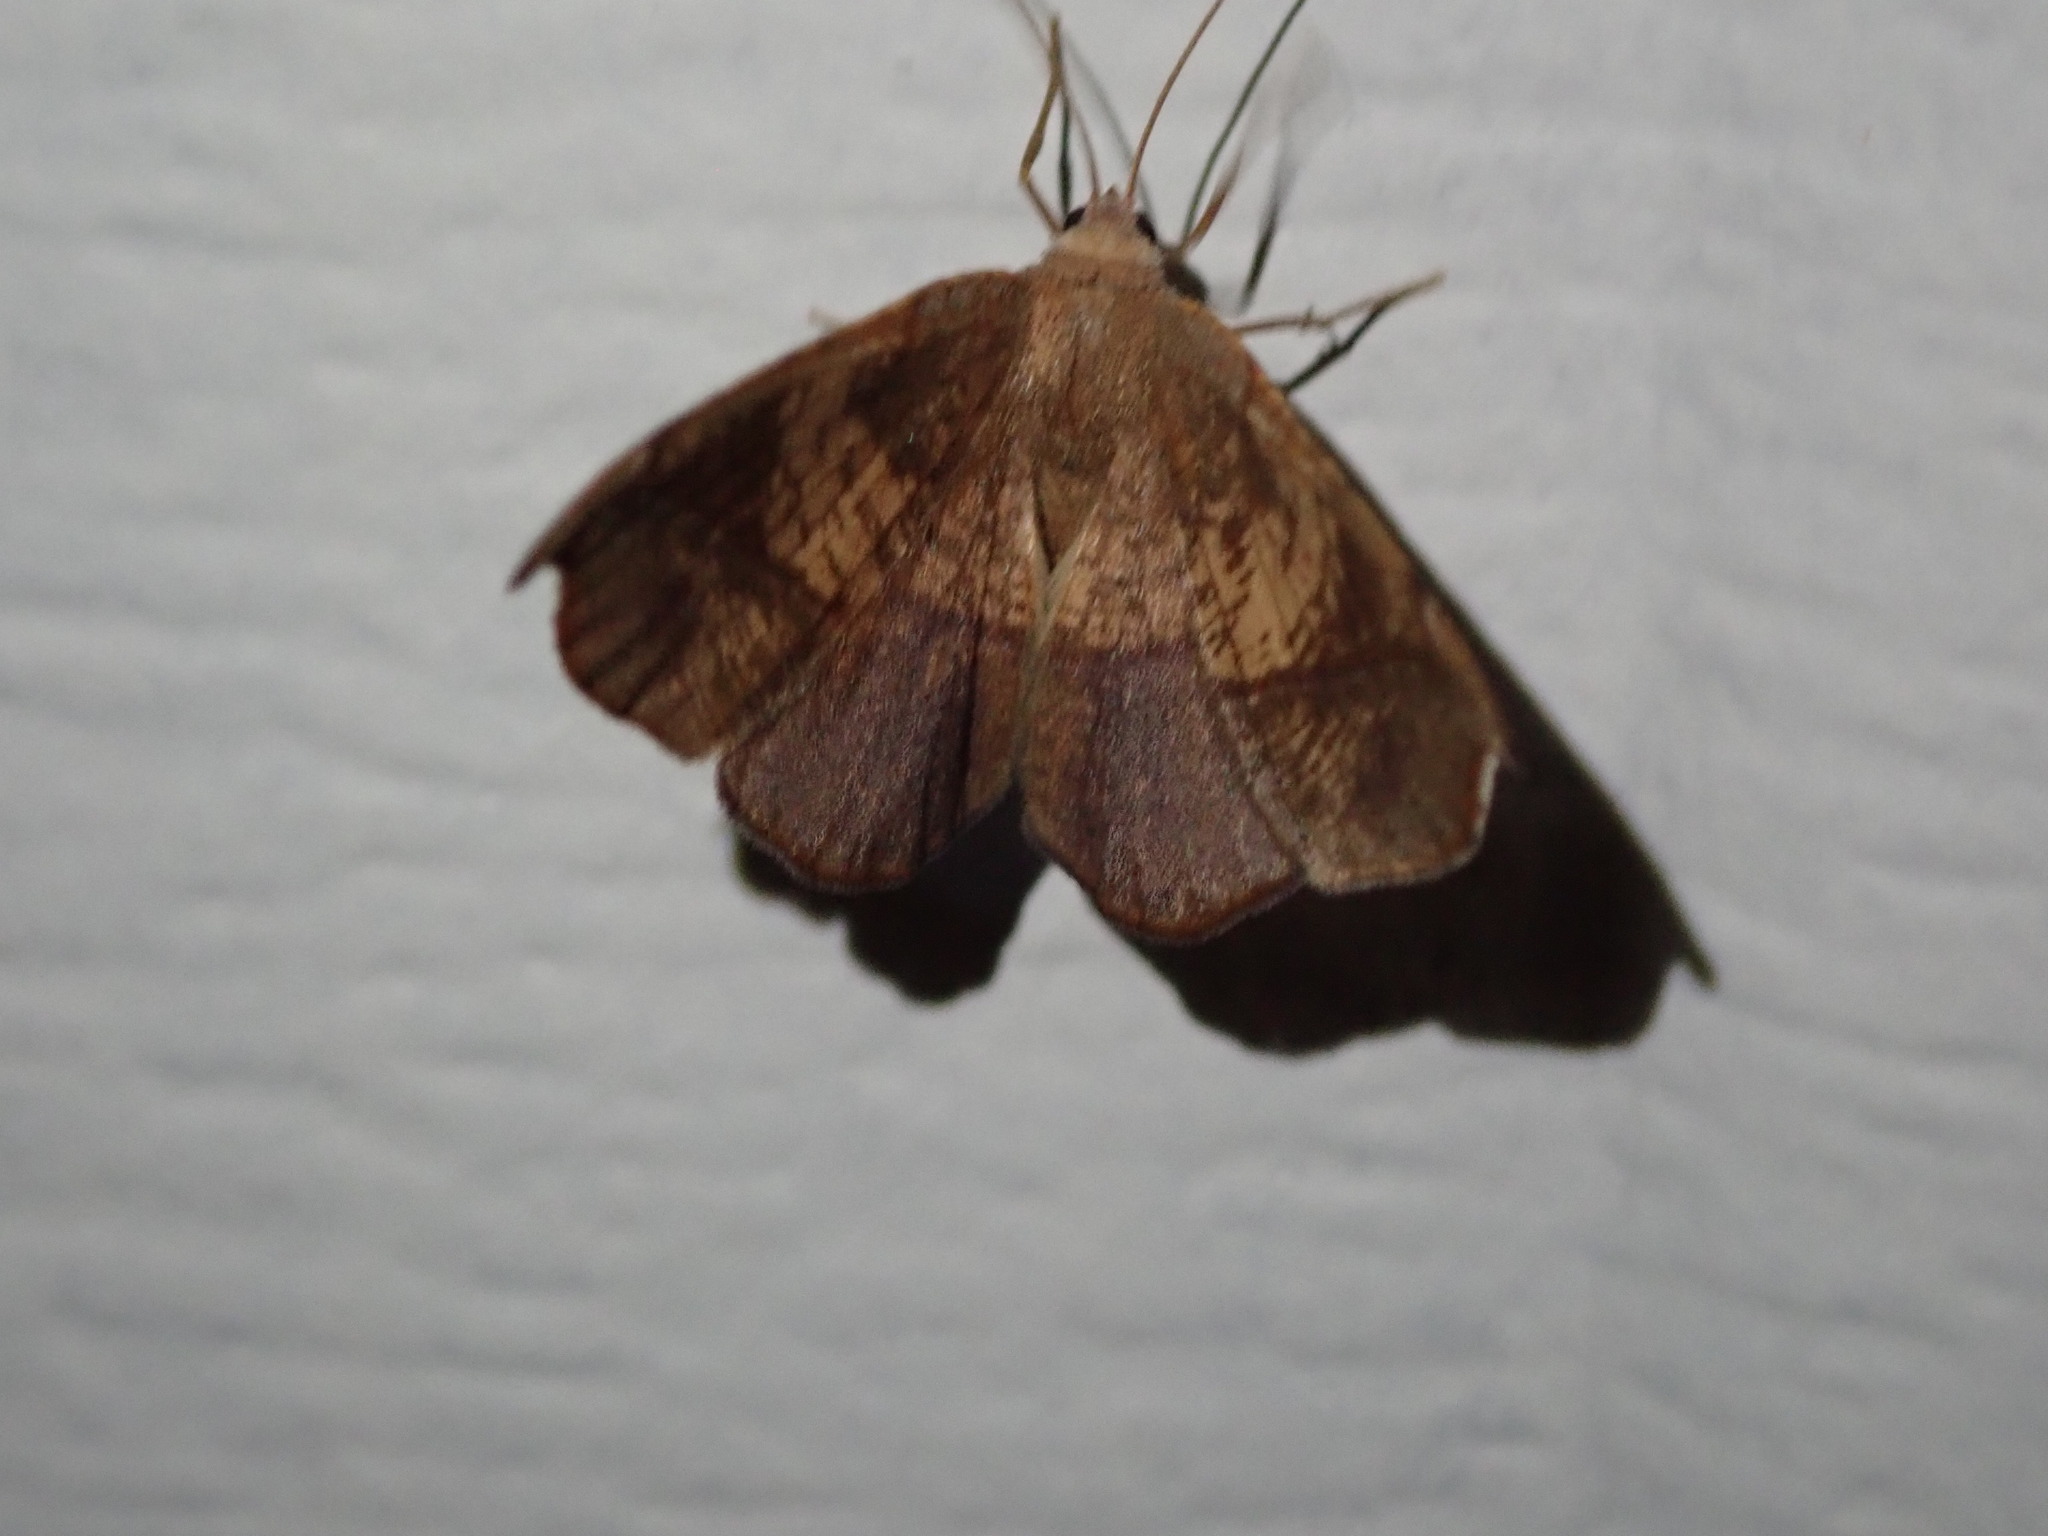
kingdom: Animalia
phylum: Arthropoda
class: Insecta
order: Lepidoptera
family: Geometridae
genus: Patalene
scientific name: Patalene olyzonaria
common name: Juniper geometer moth
